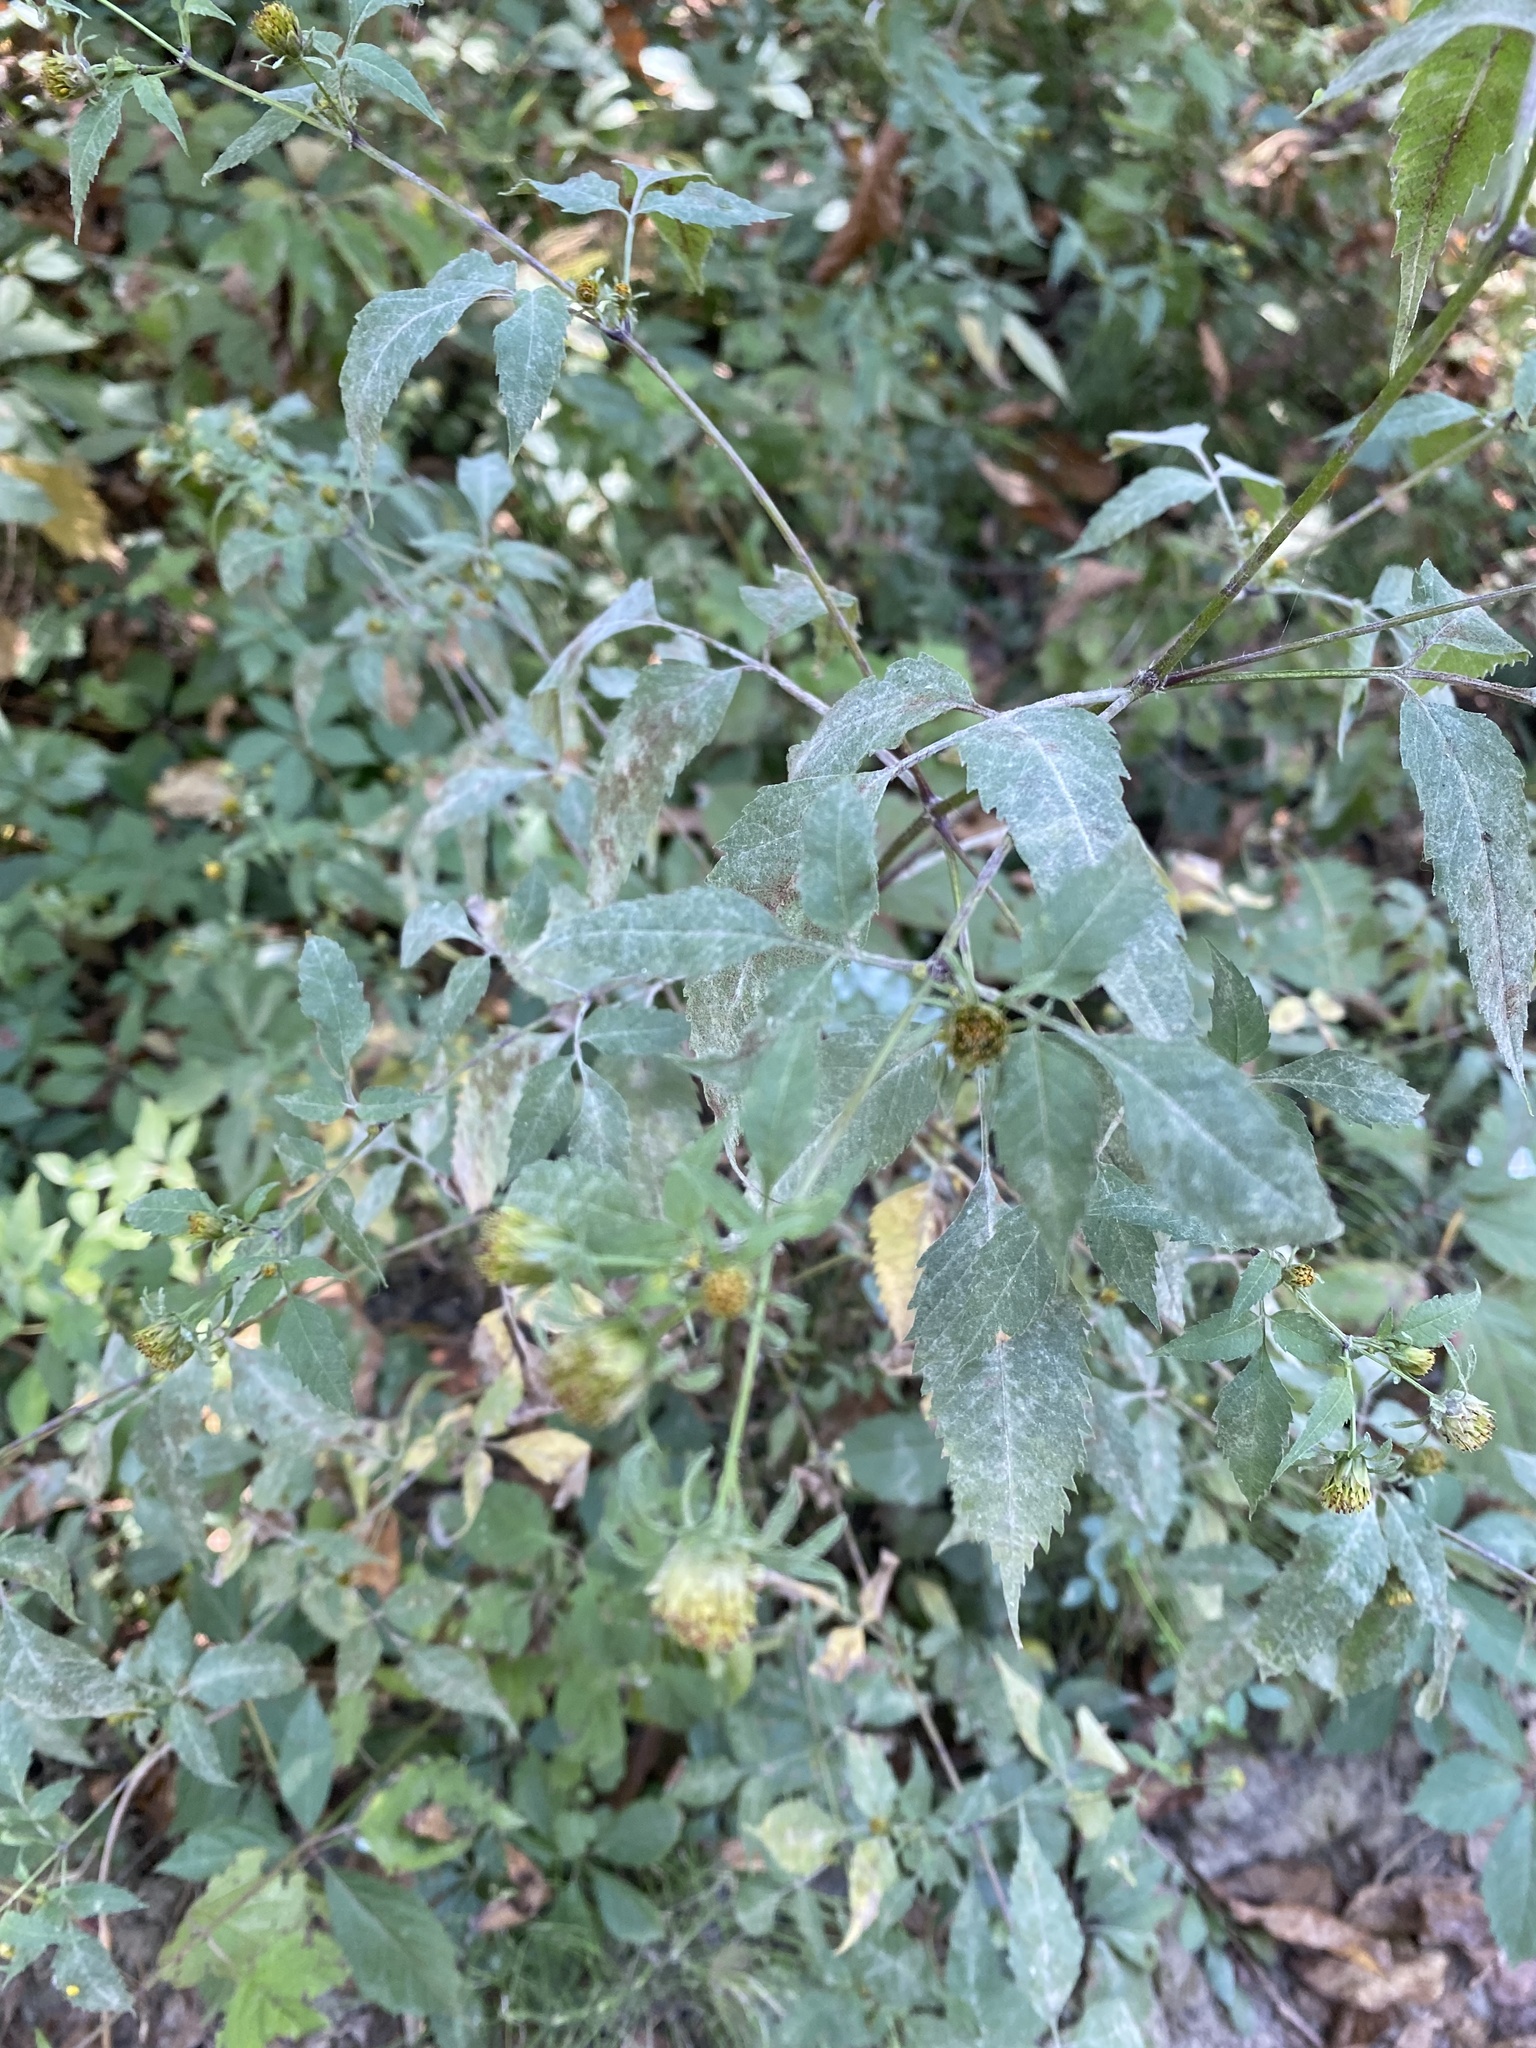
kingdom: Plantae
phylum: Tracheophyta
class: Magnoliopsida
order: Asterales
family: Asteraceae
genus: Bidens
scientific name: Bidens frondosa
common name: Beggarticks
